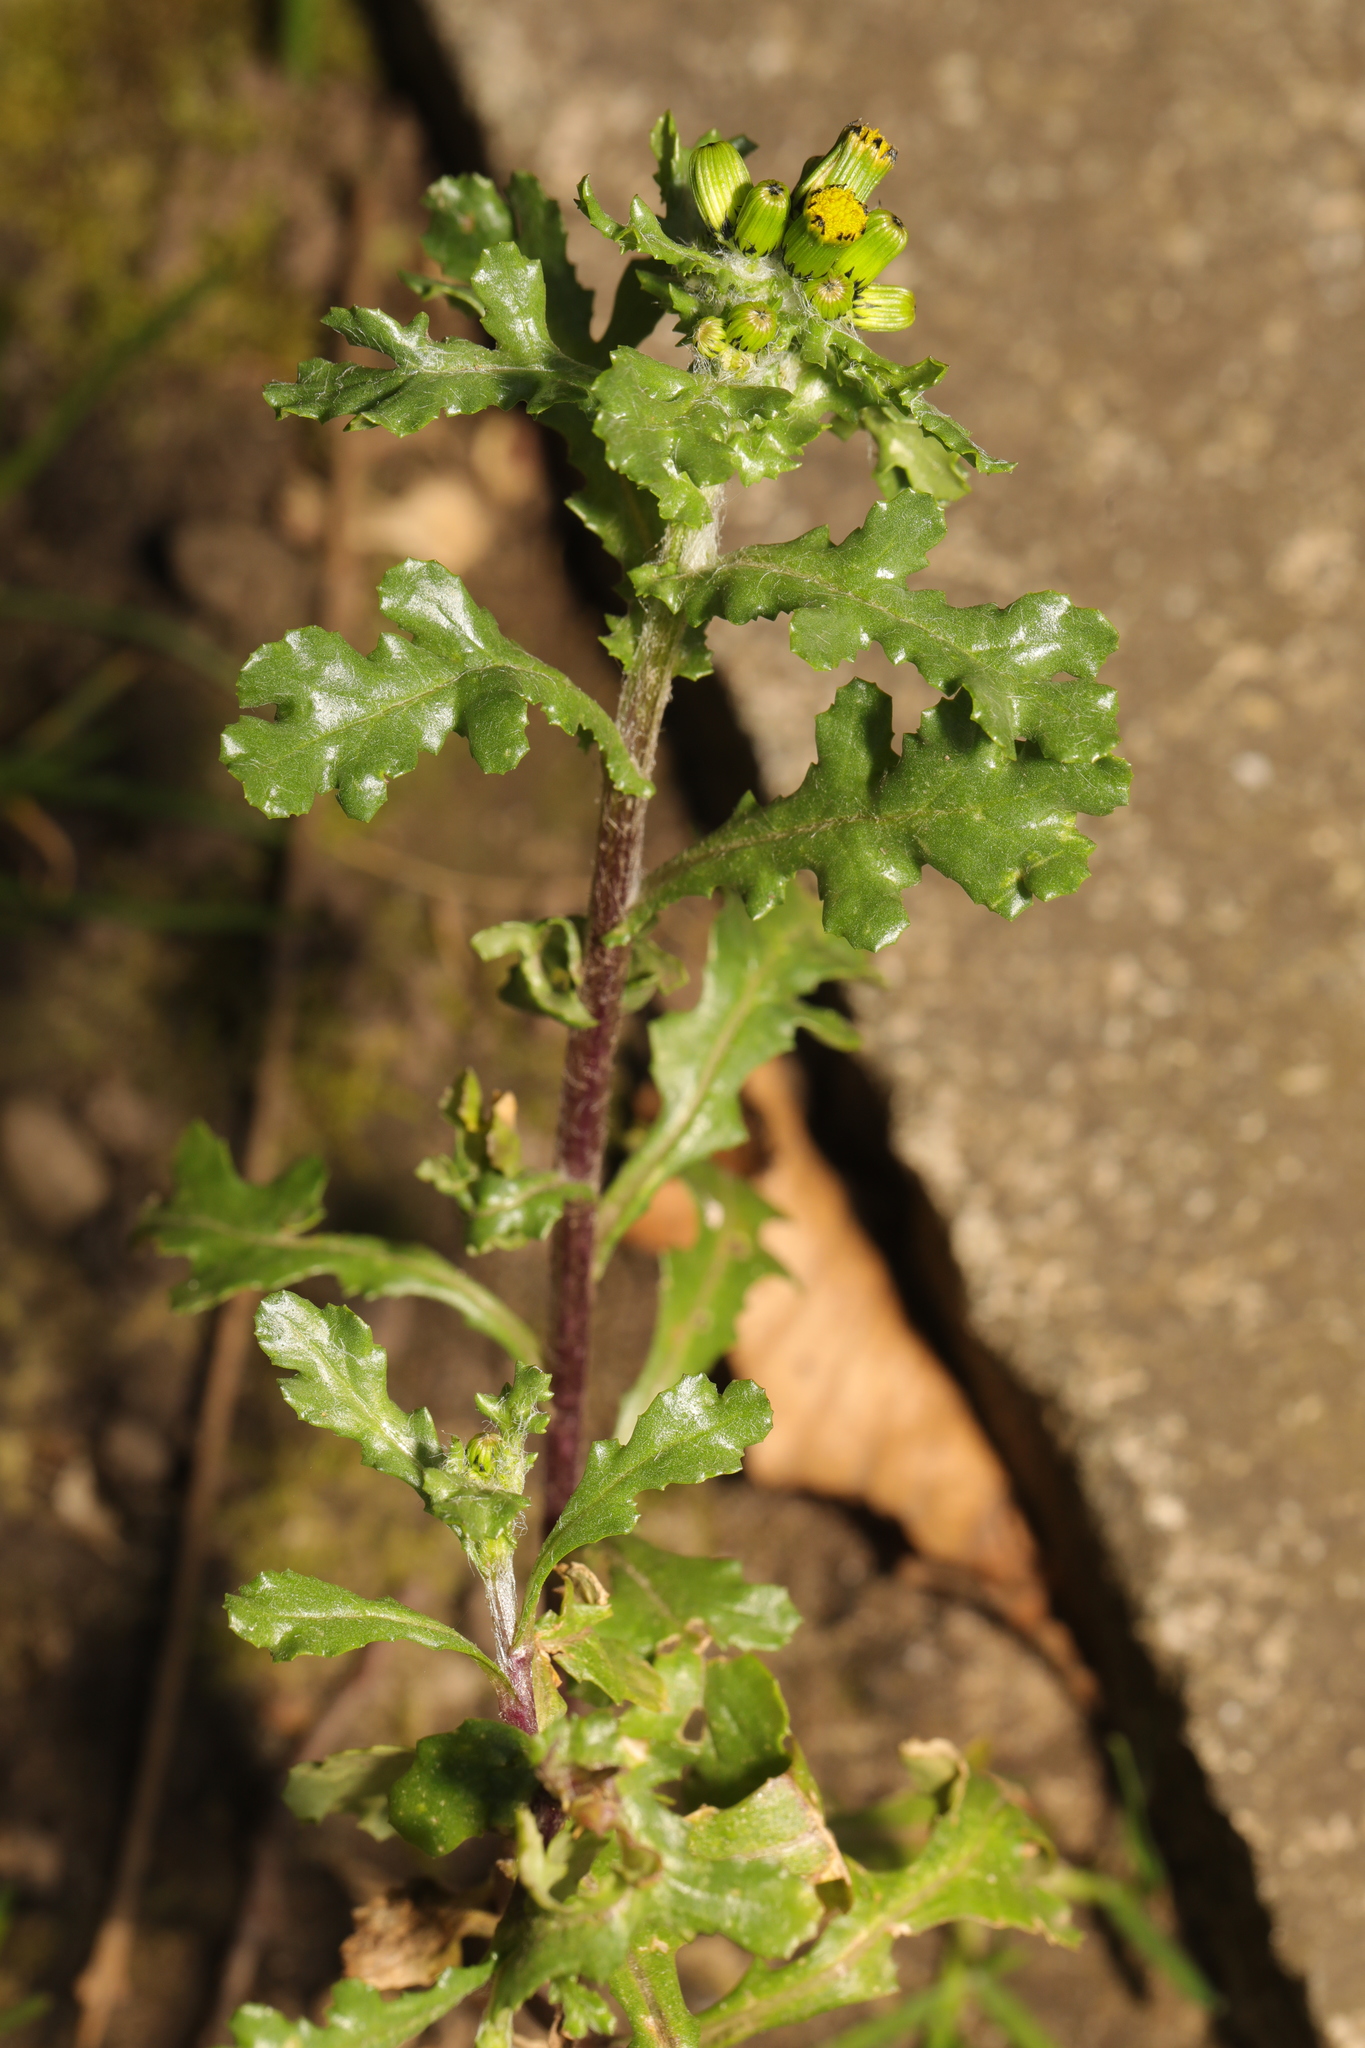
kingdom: Plantae
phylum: Tracheophyta
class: Magnoliopsida
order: Asterales
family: Asteraceae
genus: Senecio
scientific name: Senecio vulgaris
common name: Old-man-in-the-spring
